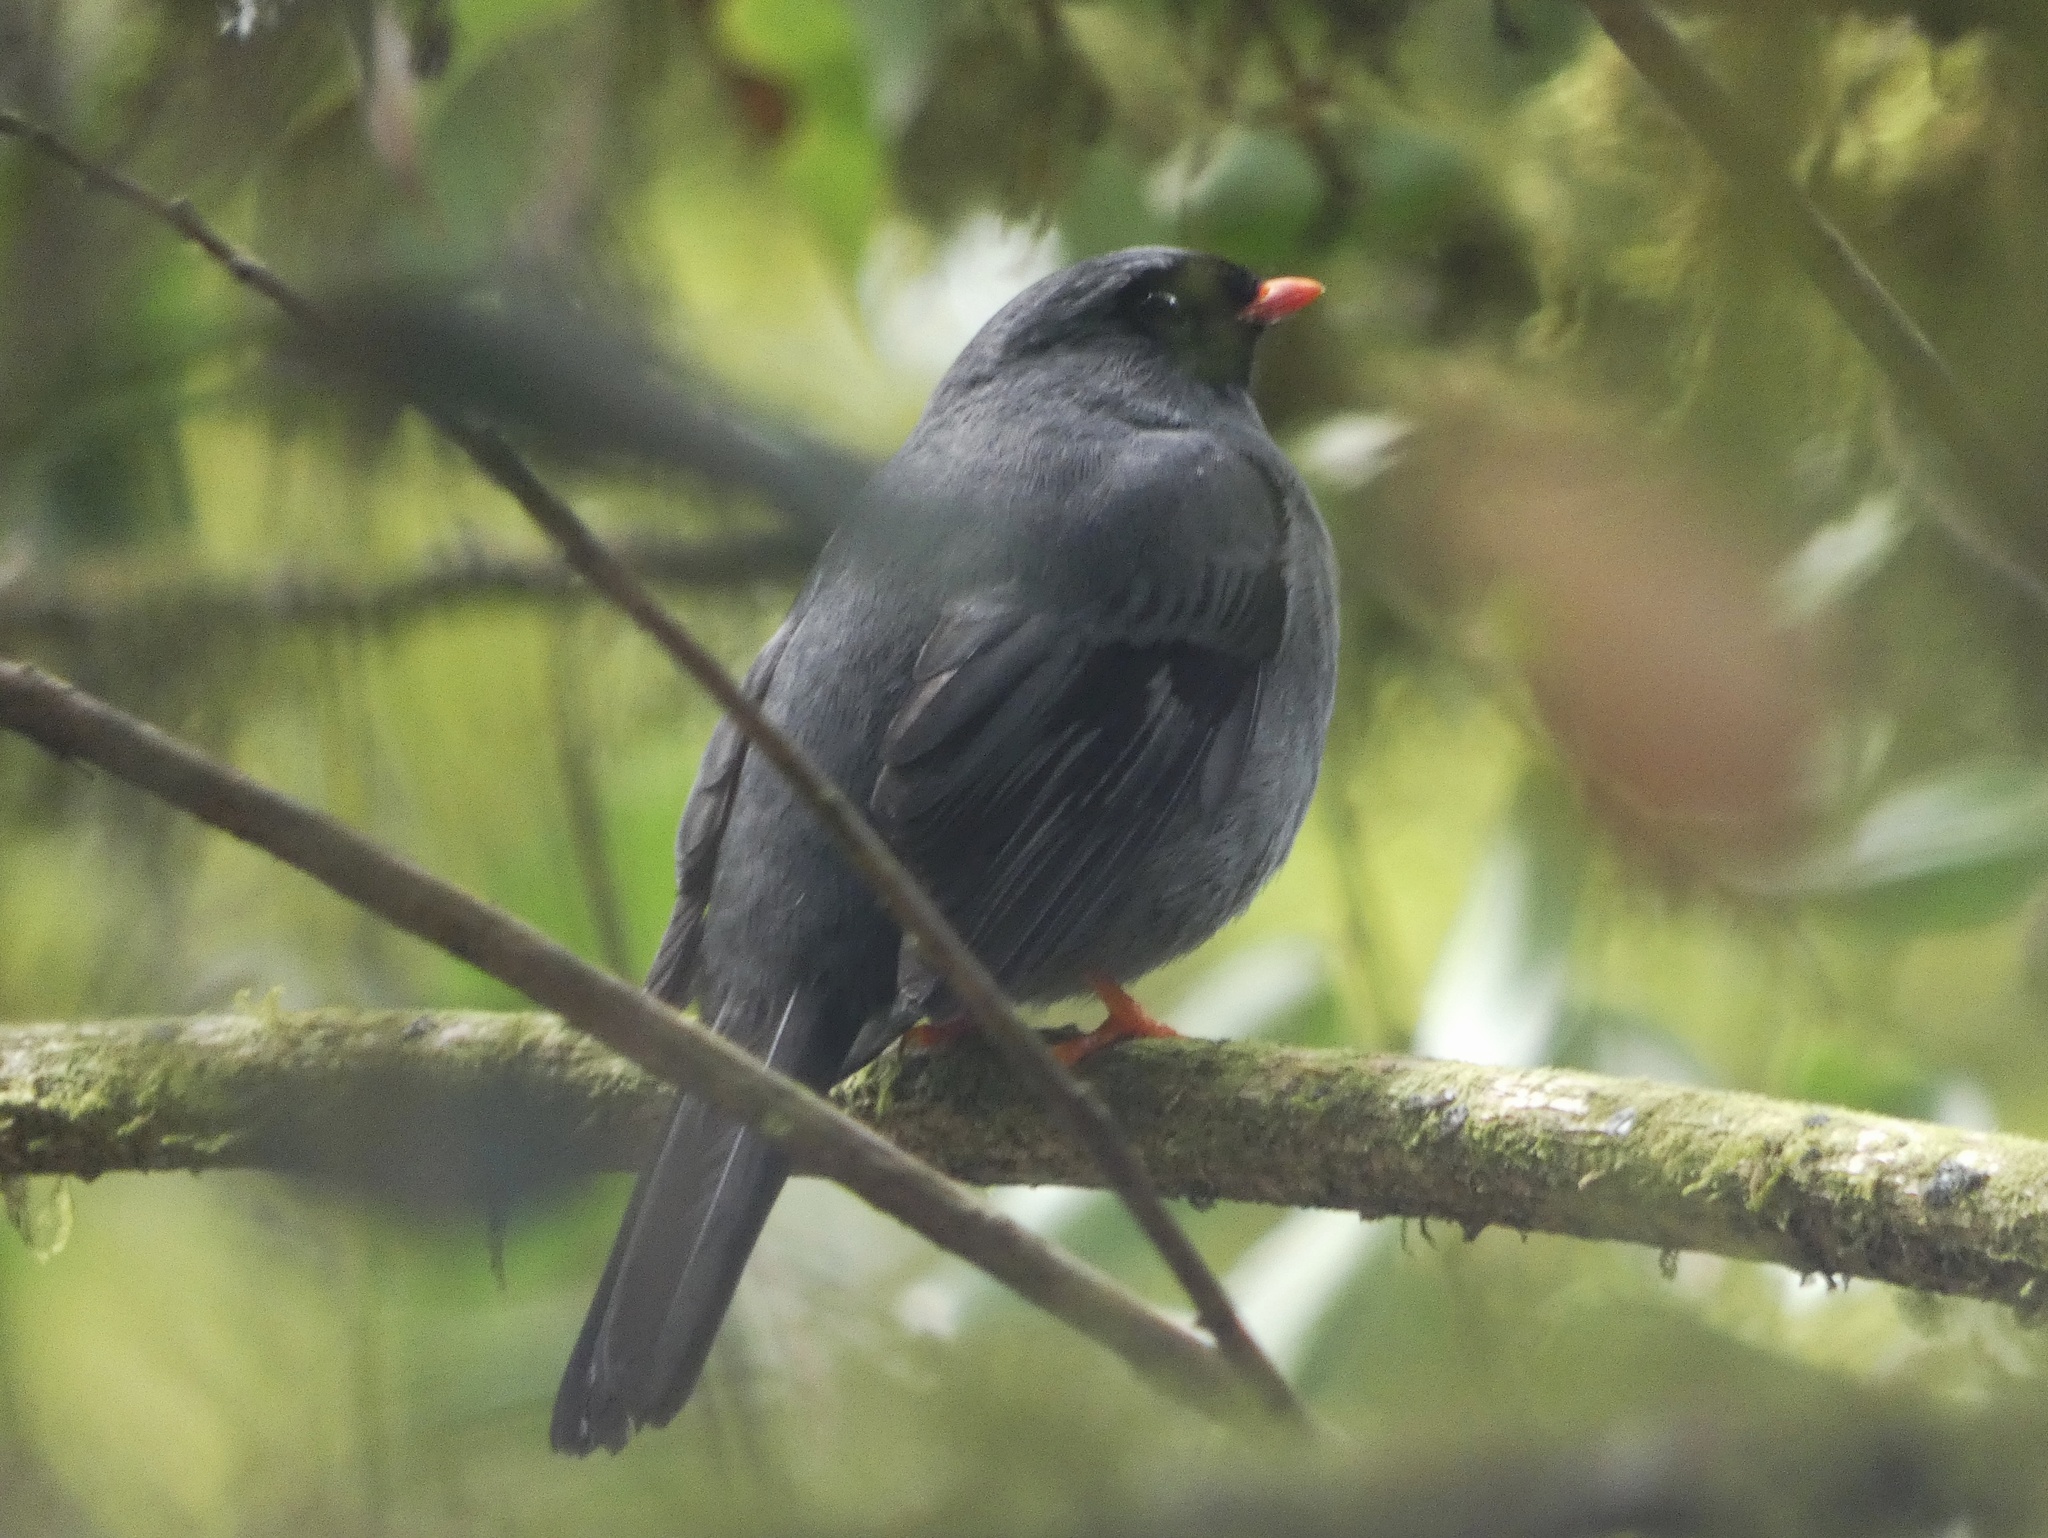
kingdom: Animalia
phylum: Chordata
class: Aves
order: Passeriformes
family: Turdidae
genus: Myadestes
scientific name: Myadestes melanops
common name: Black-faced solitaire
